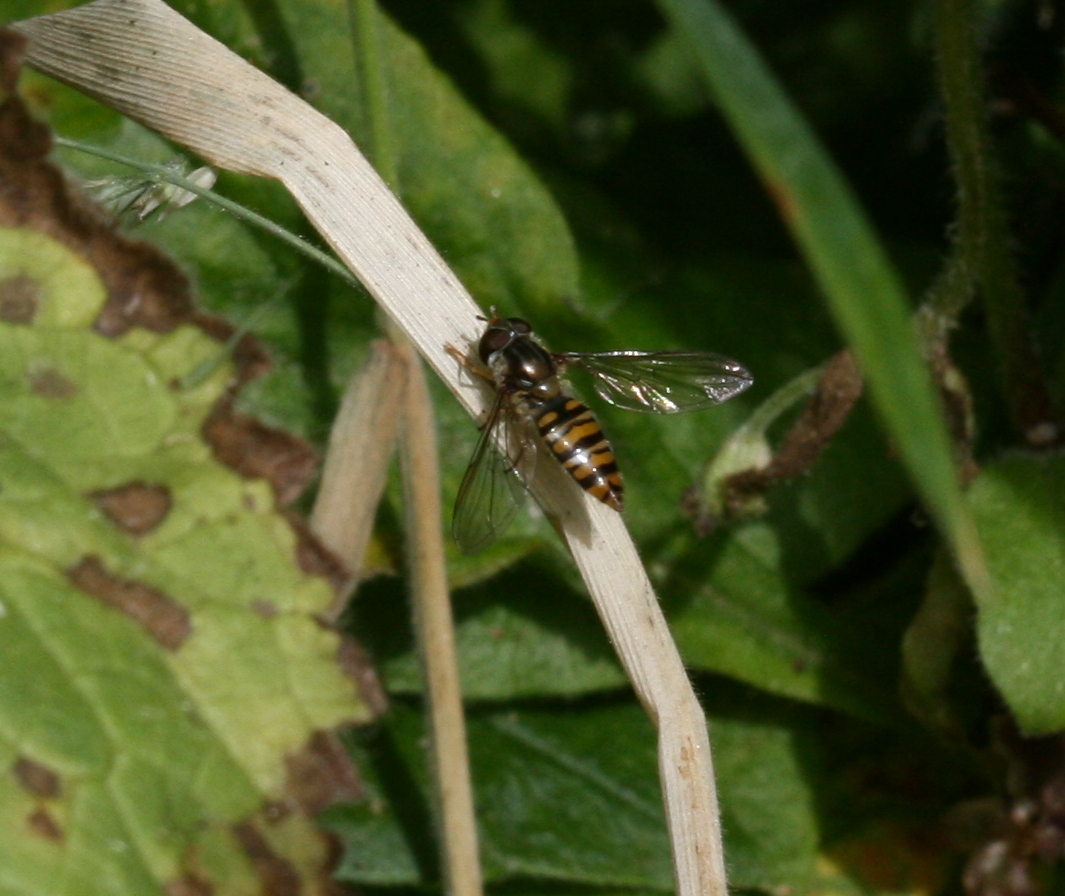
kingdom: Animalia
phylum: Arthropoda
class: Insecta
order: Diptera
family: Syrphidae
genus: Episyrphus
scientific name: Episyrphus balteatus
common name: Marmalade hoverfly
